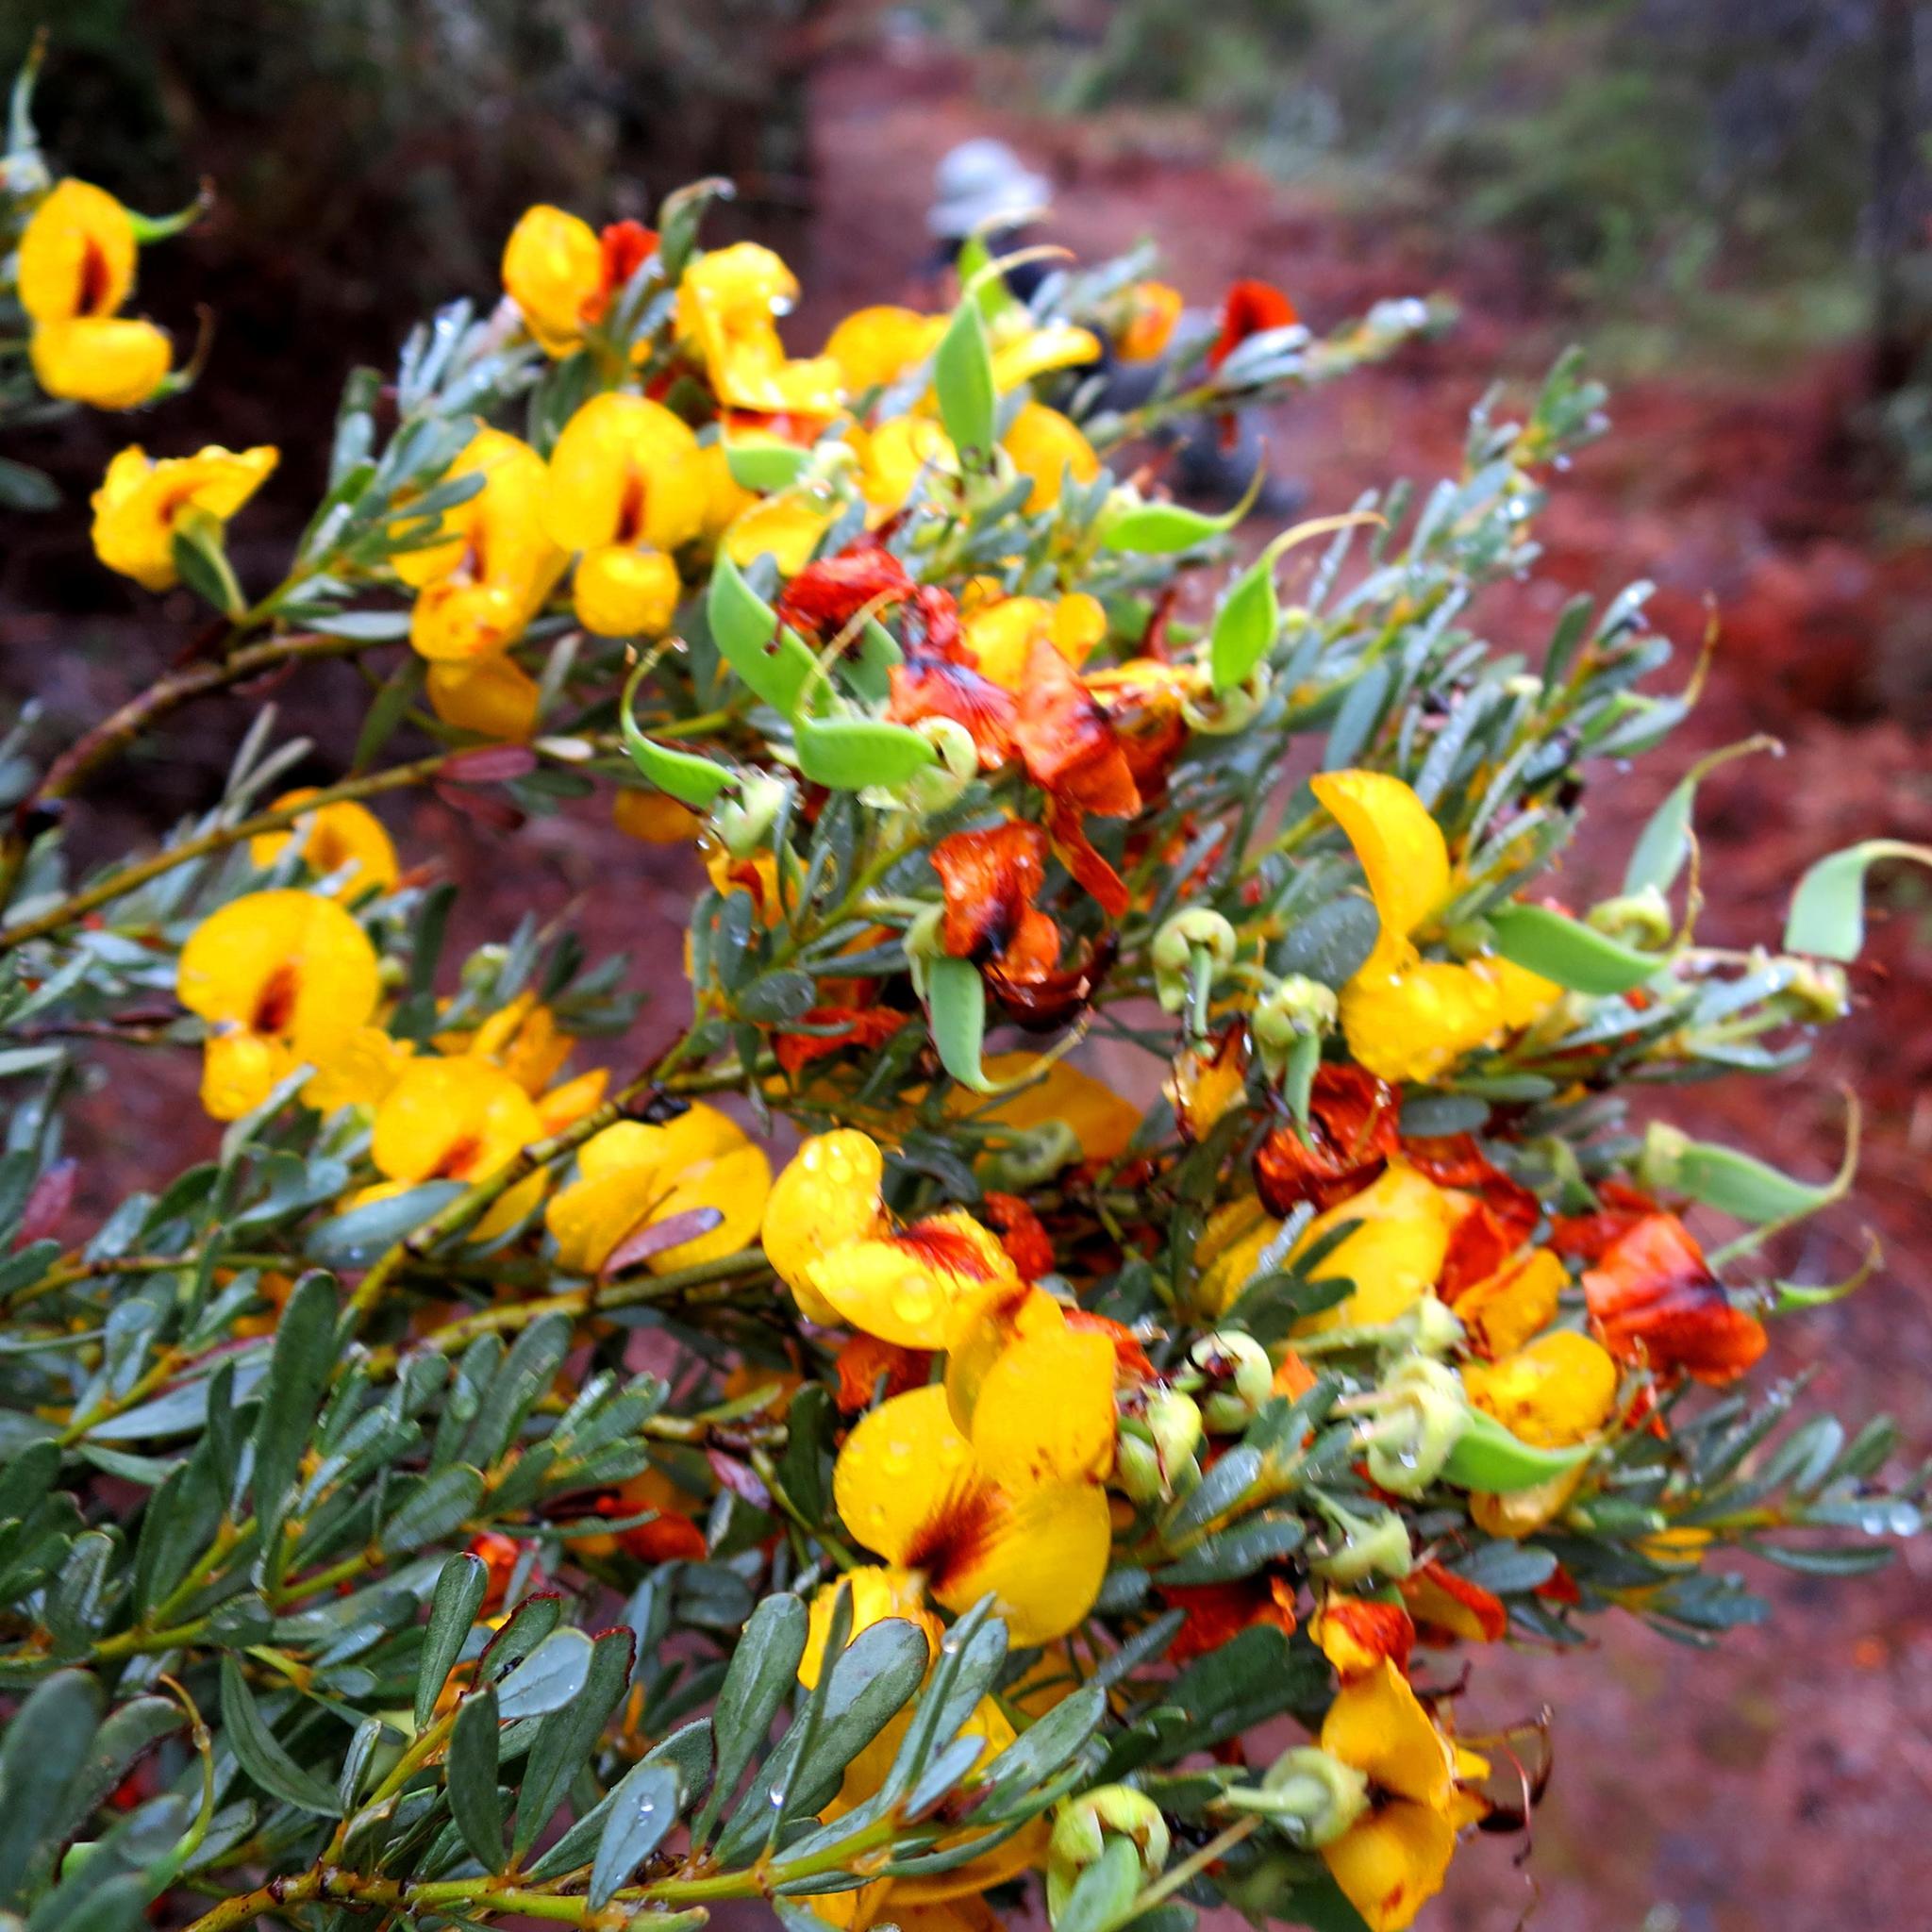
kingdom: Plantae
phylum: Tracheophyta
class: Magnoliopsida
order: Fabales
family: Fabaceae
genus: Cyclopia
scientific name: Cyclopia subternata
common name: Honeybush tea
